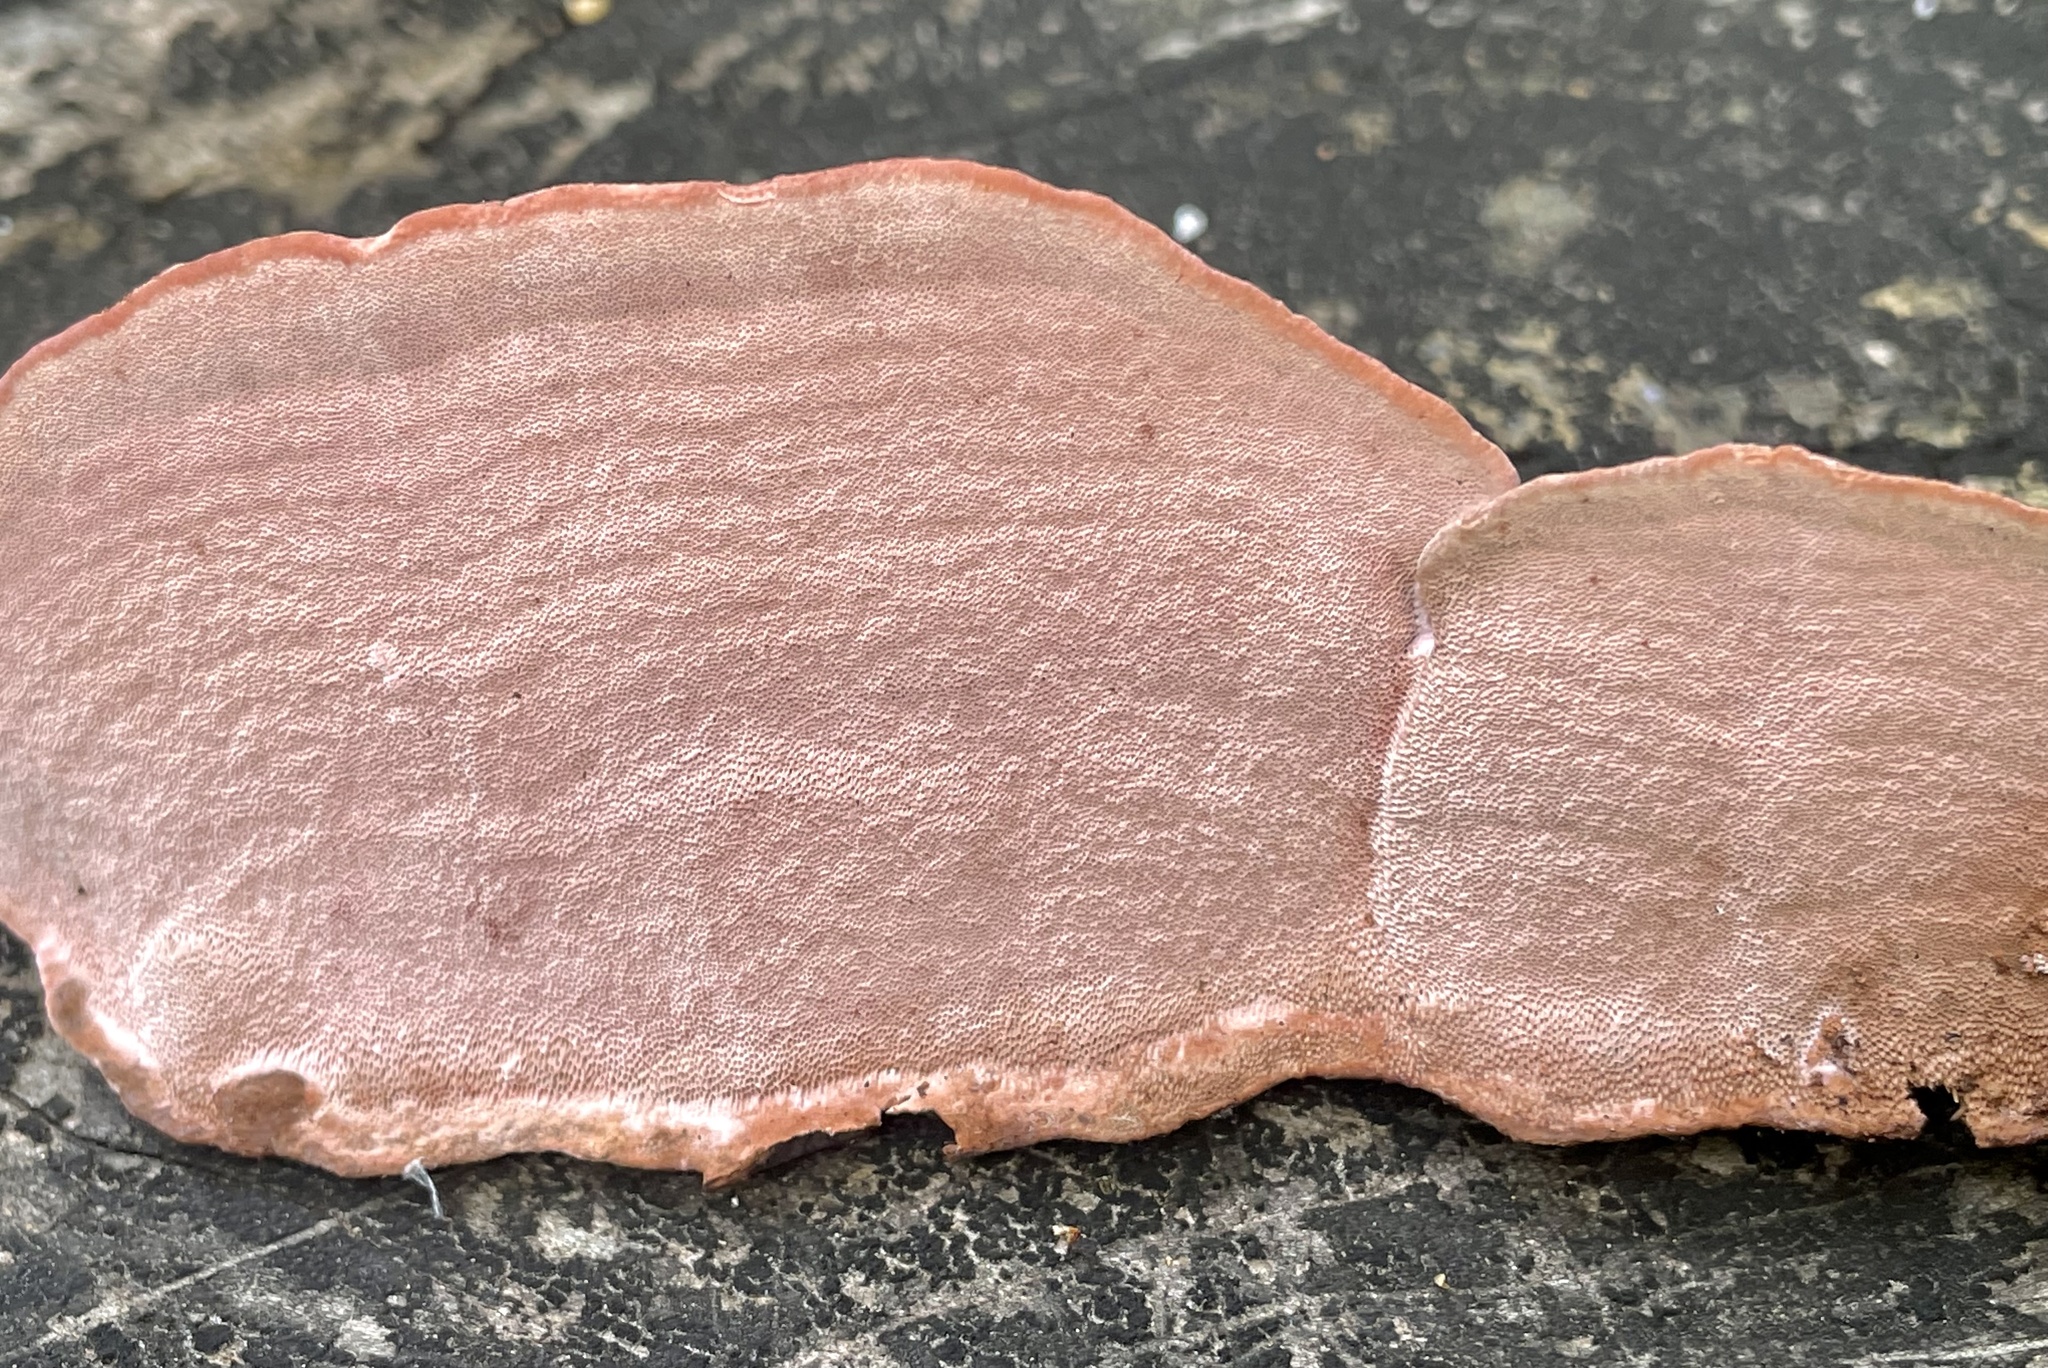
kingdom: Fungi
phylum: Basidiomycota
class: Agaricomycetes
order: Polyporales
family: Fomitopsidaceae
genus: Rhodofomes
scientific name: Rhodofomes cajanderi
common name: Rosy conk
